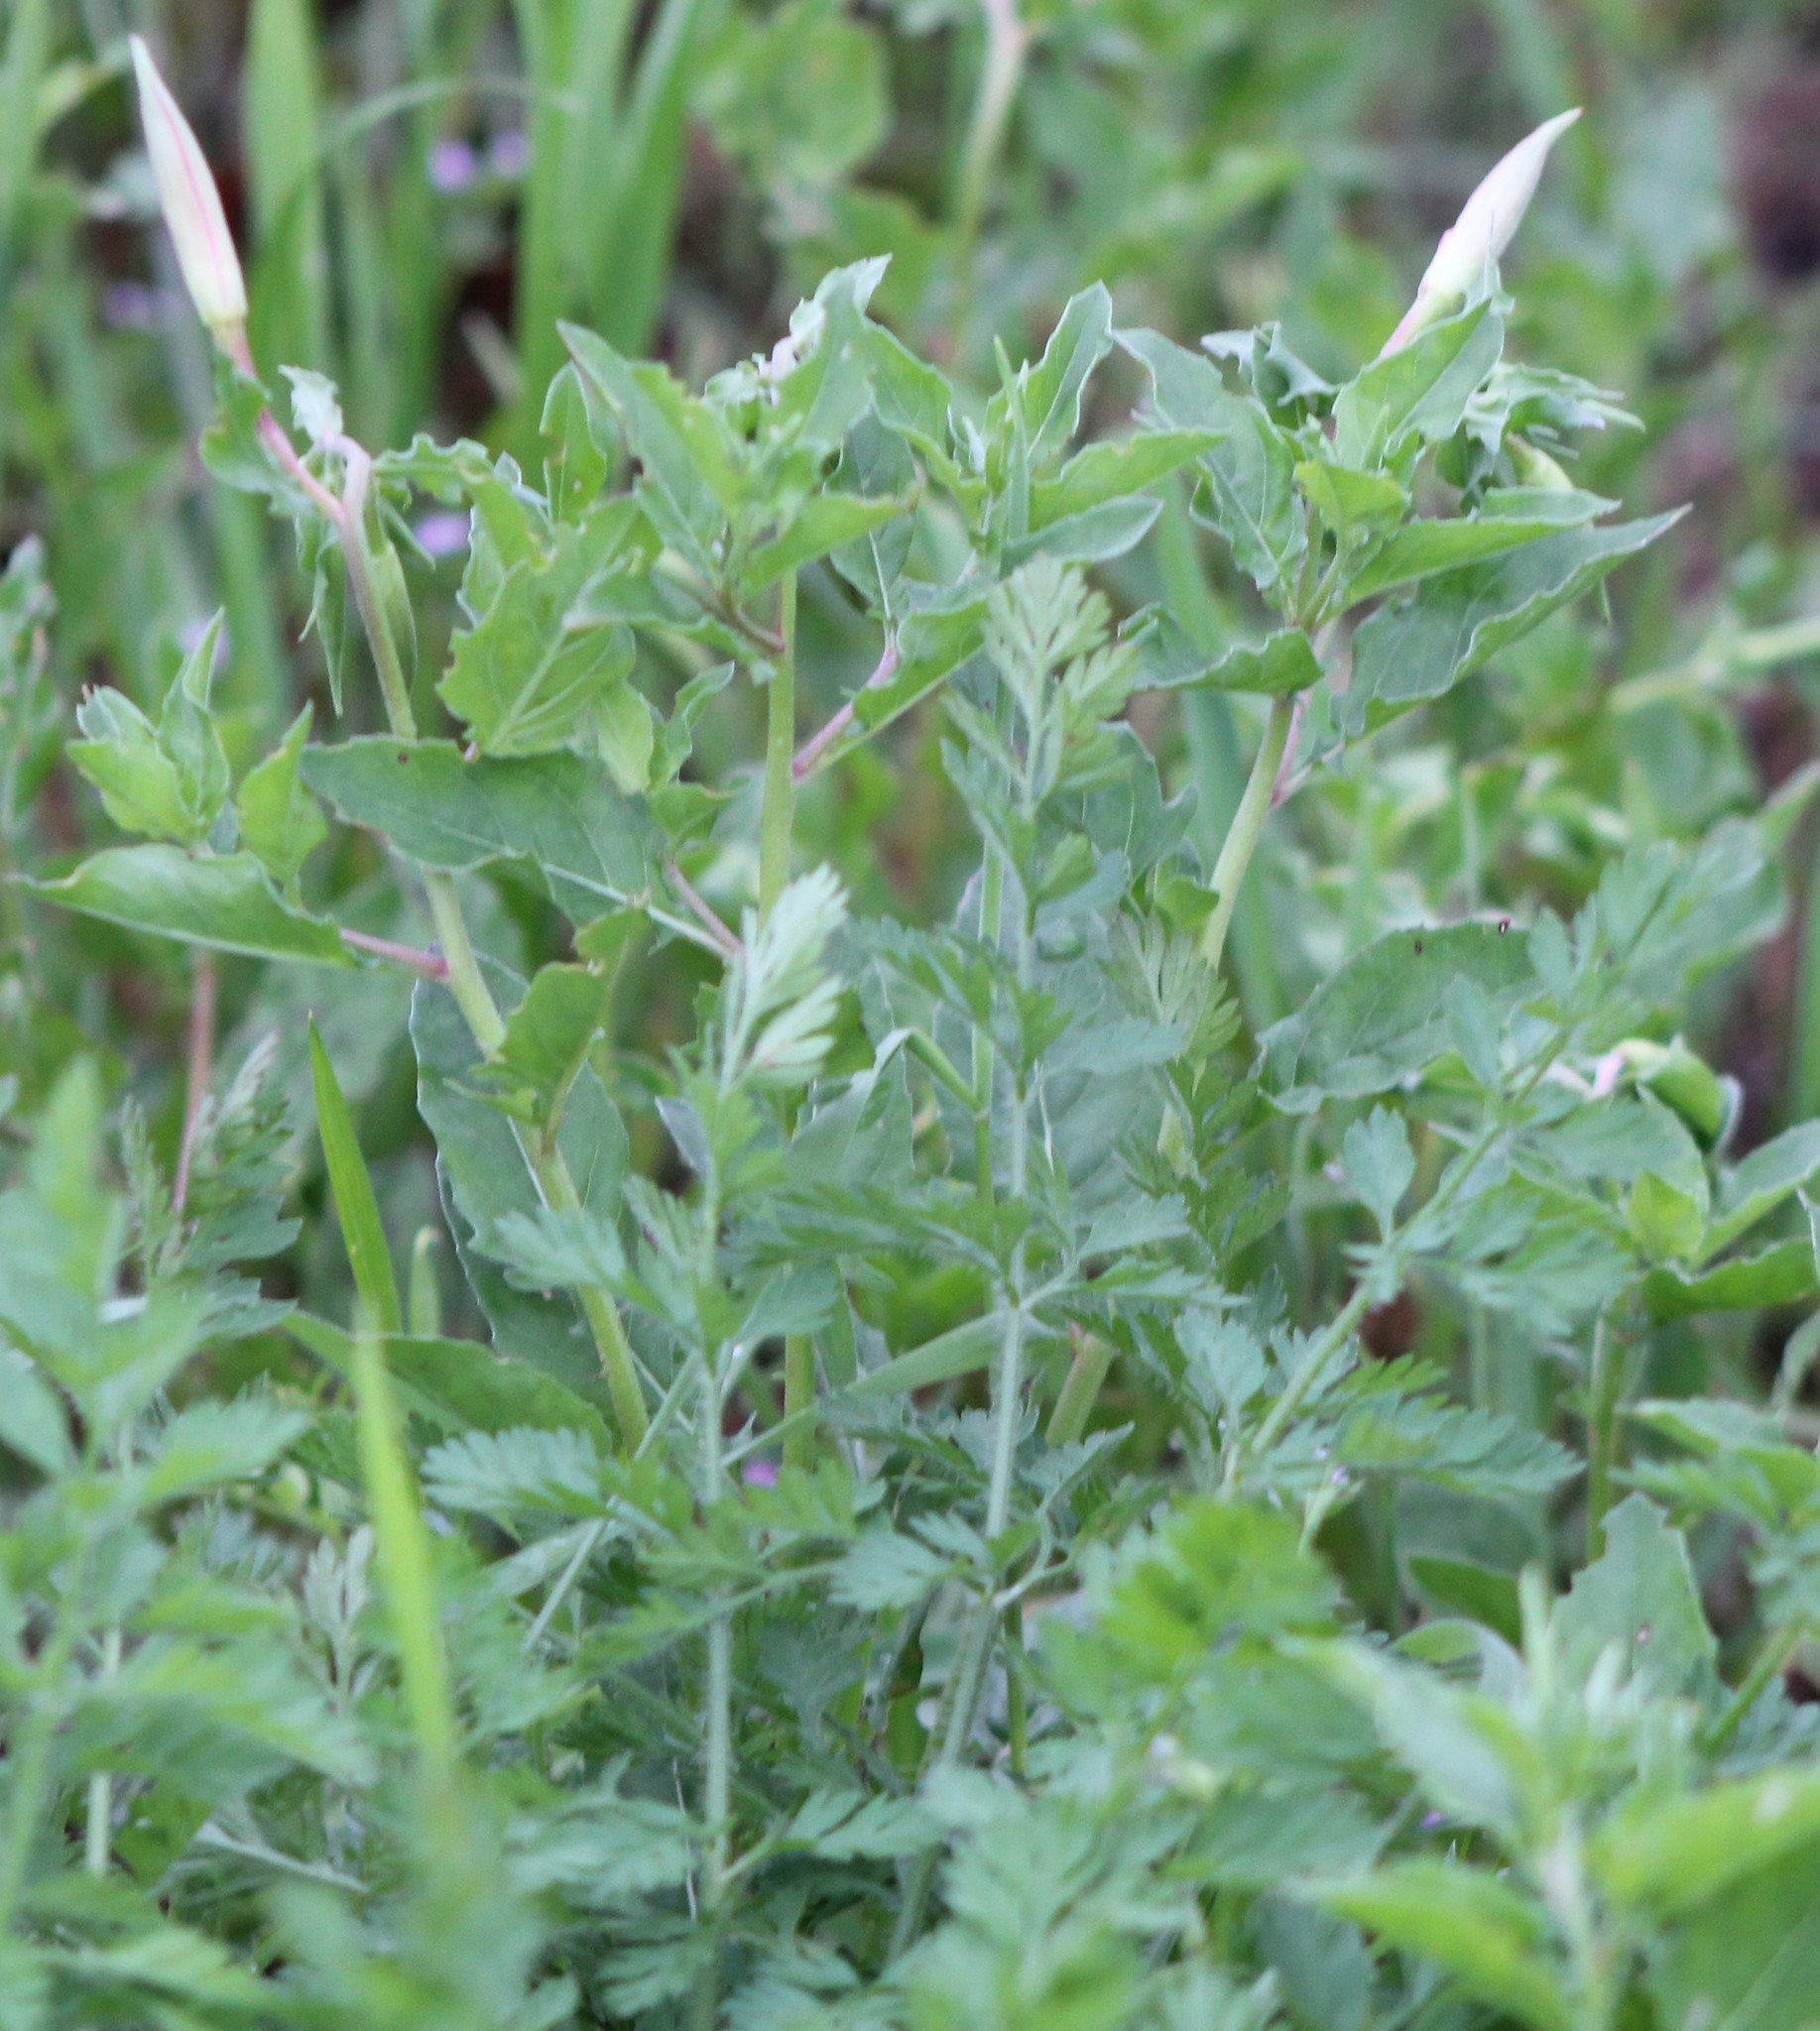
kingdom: Plantae
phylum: Tracheophyta
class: Magnoliopsida
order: Myrtales
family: Onagraceae
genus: Oenothera
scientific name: Oenothera speciosa
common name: White evening-primrose
